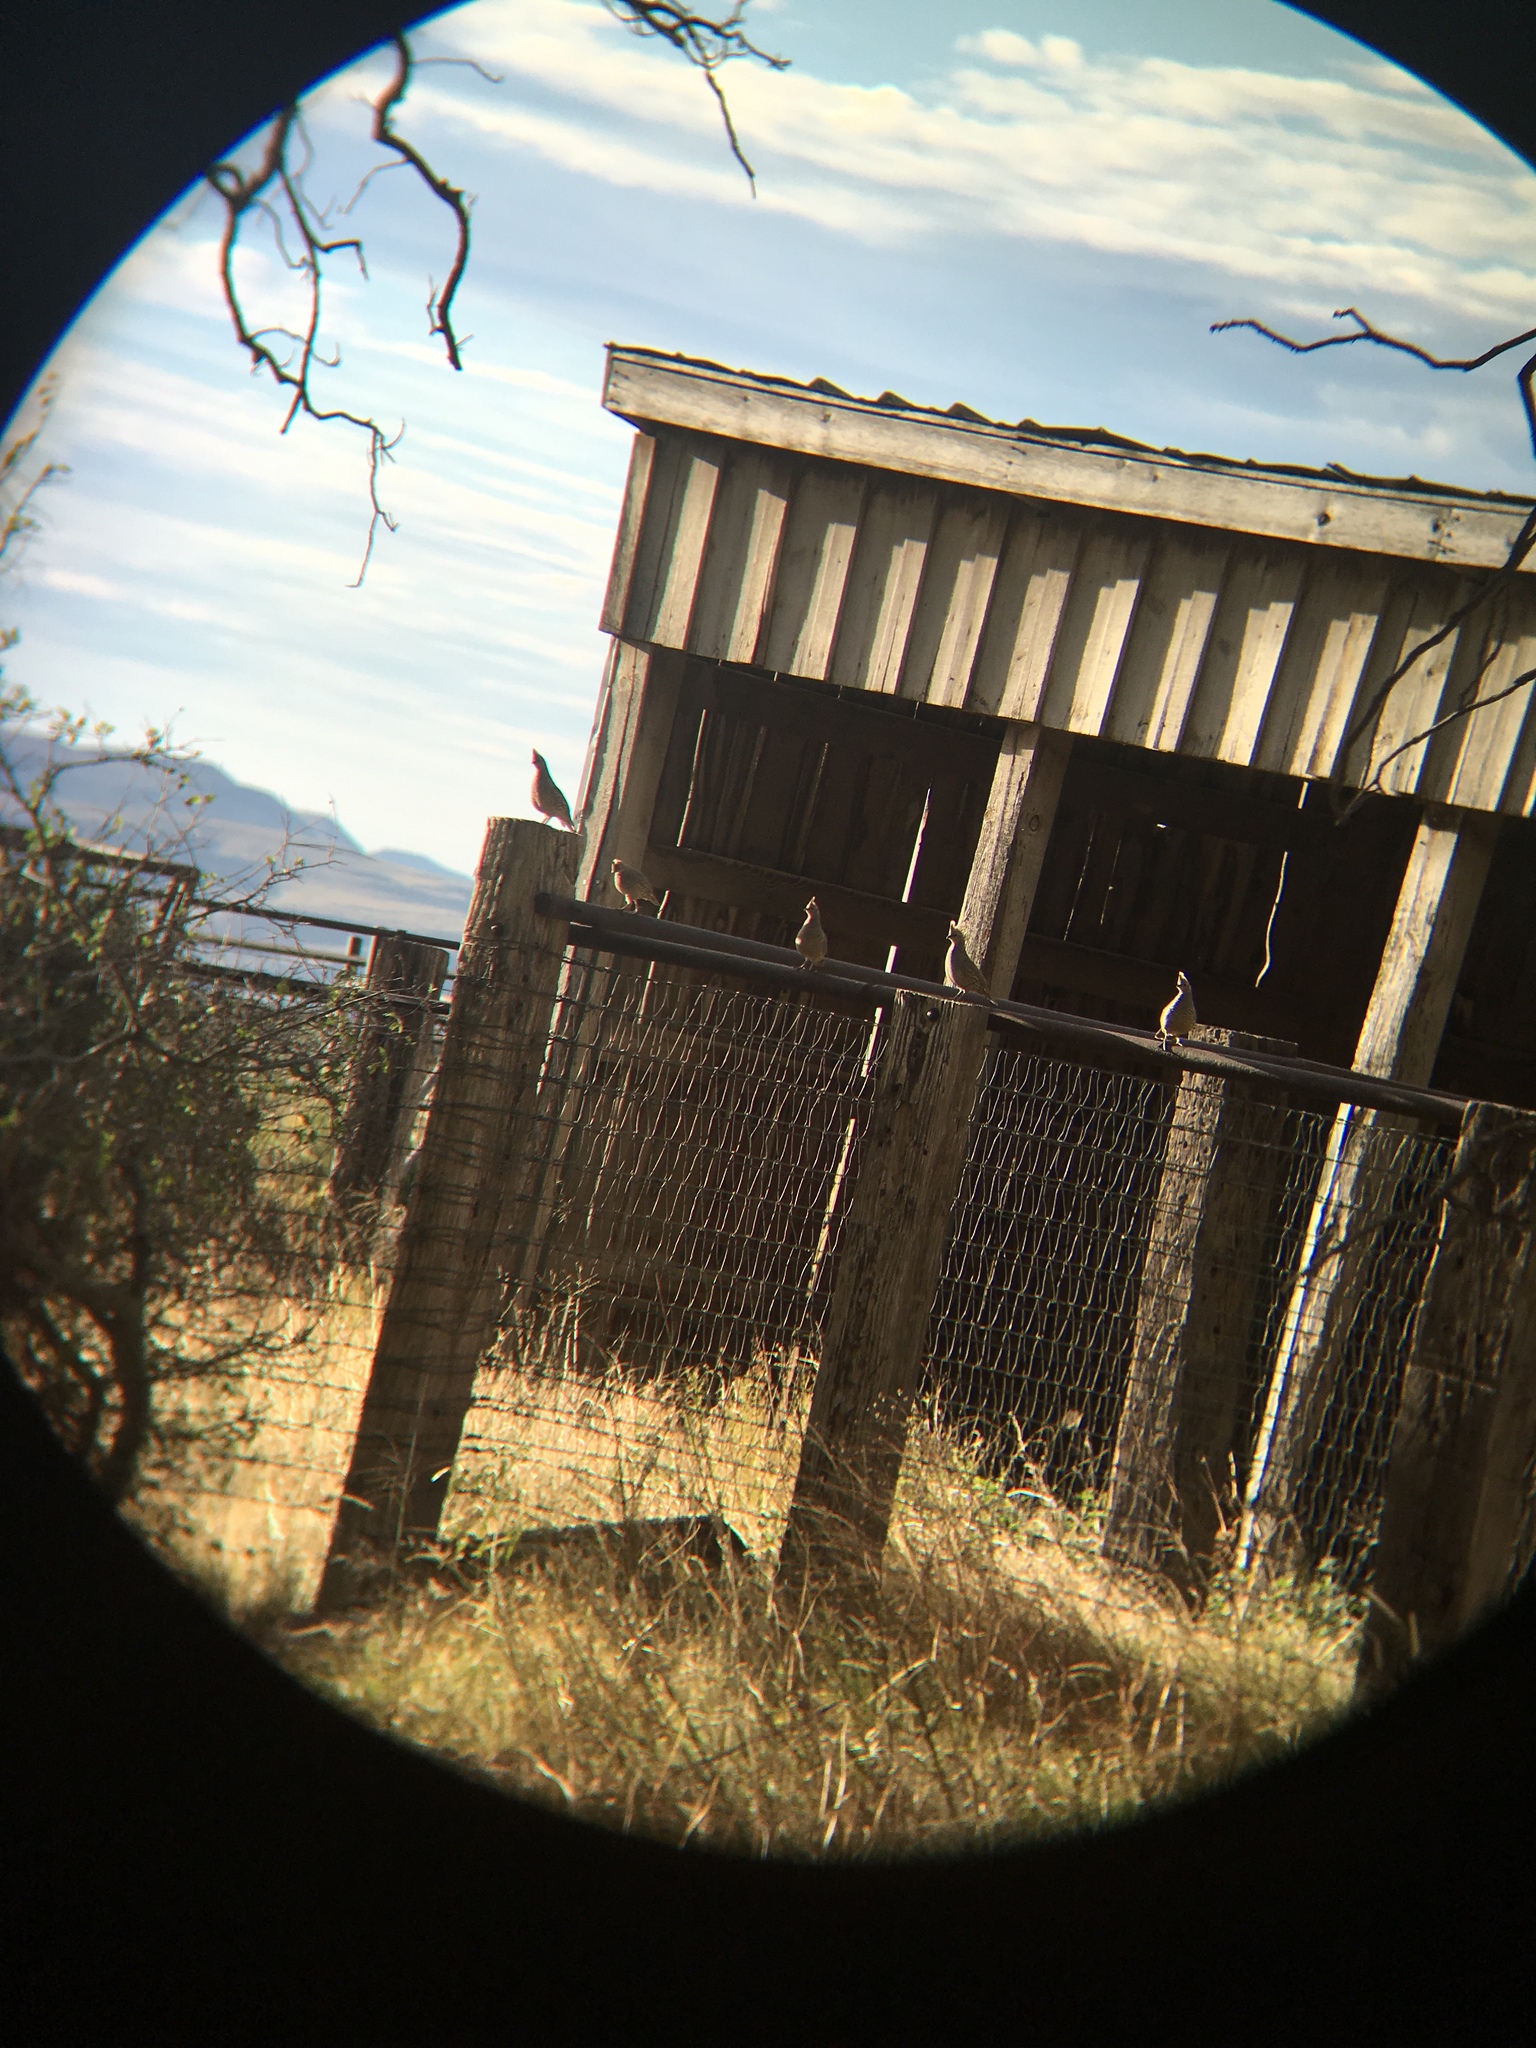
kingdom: Animalia
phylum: Chordata
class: Aves
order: Galliformes
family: Odontophoridae
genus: Callipepla
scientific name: Callipepla squamata
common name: Scaled quail
